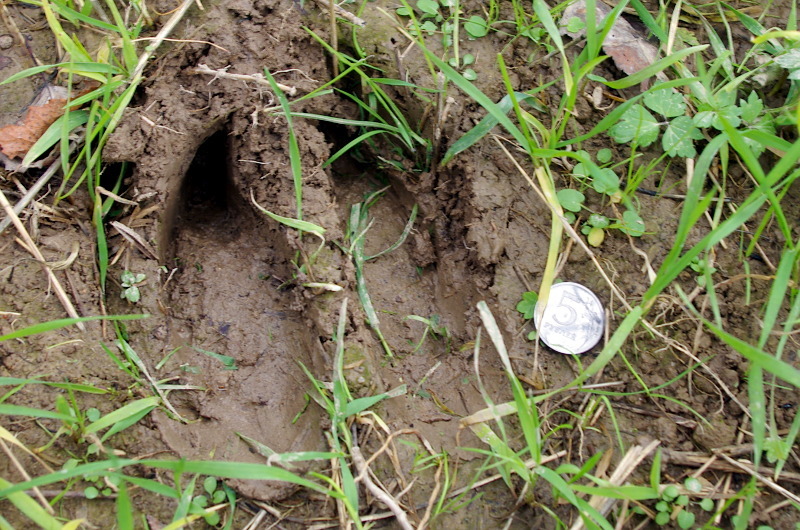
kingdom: Animalia
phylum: Chordata
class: Mammalia
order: Artiodactyla
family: Cervidae
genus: Alces
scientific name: Alces alces
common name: Moose
